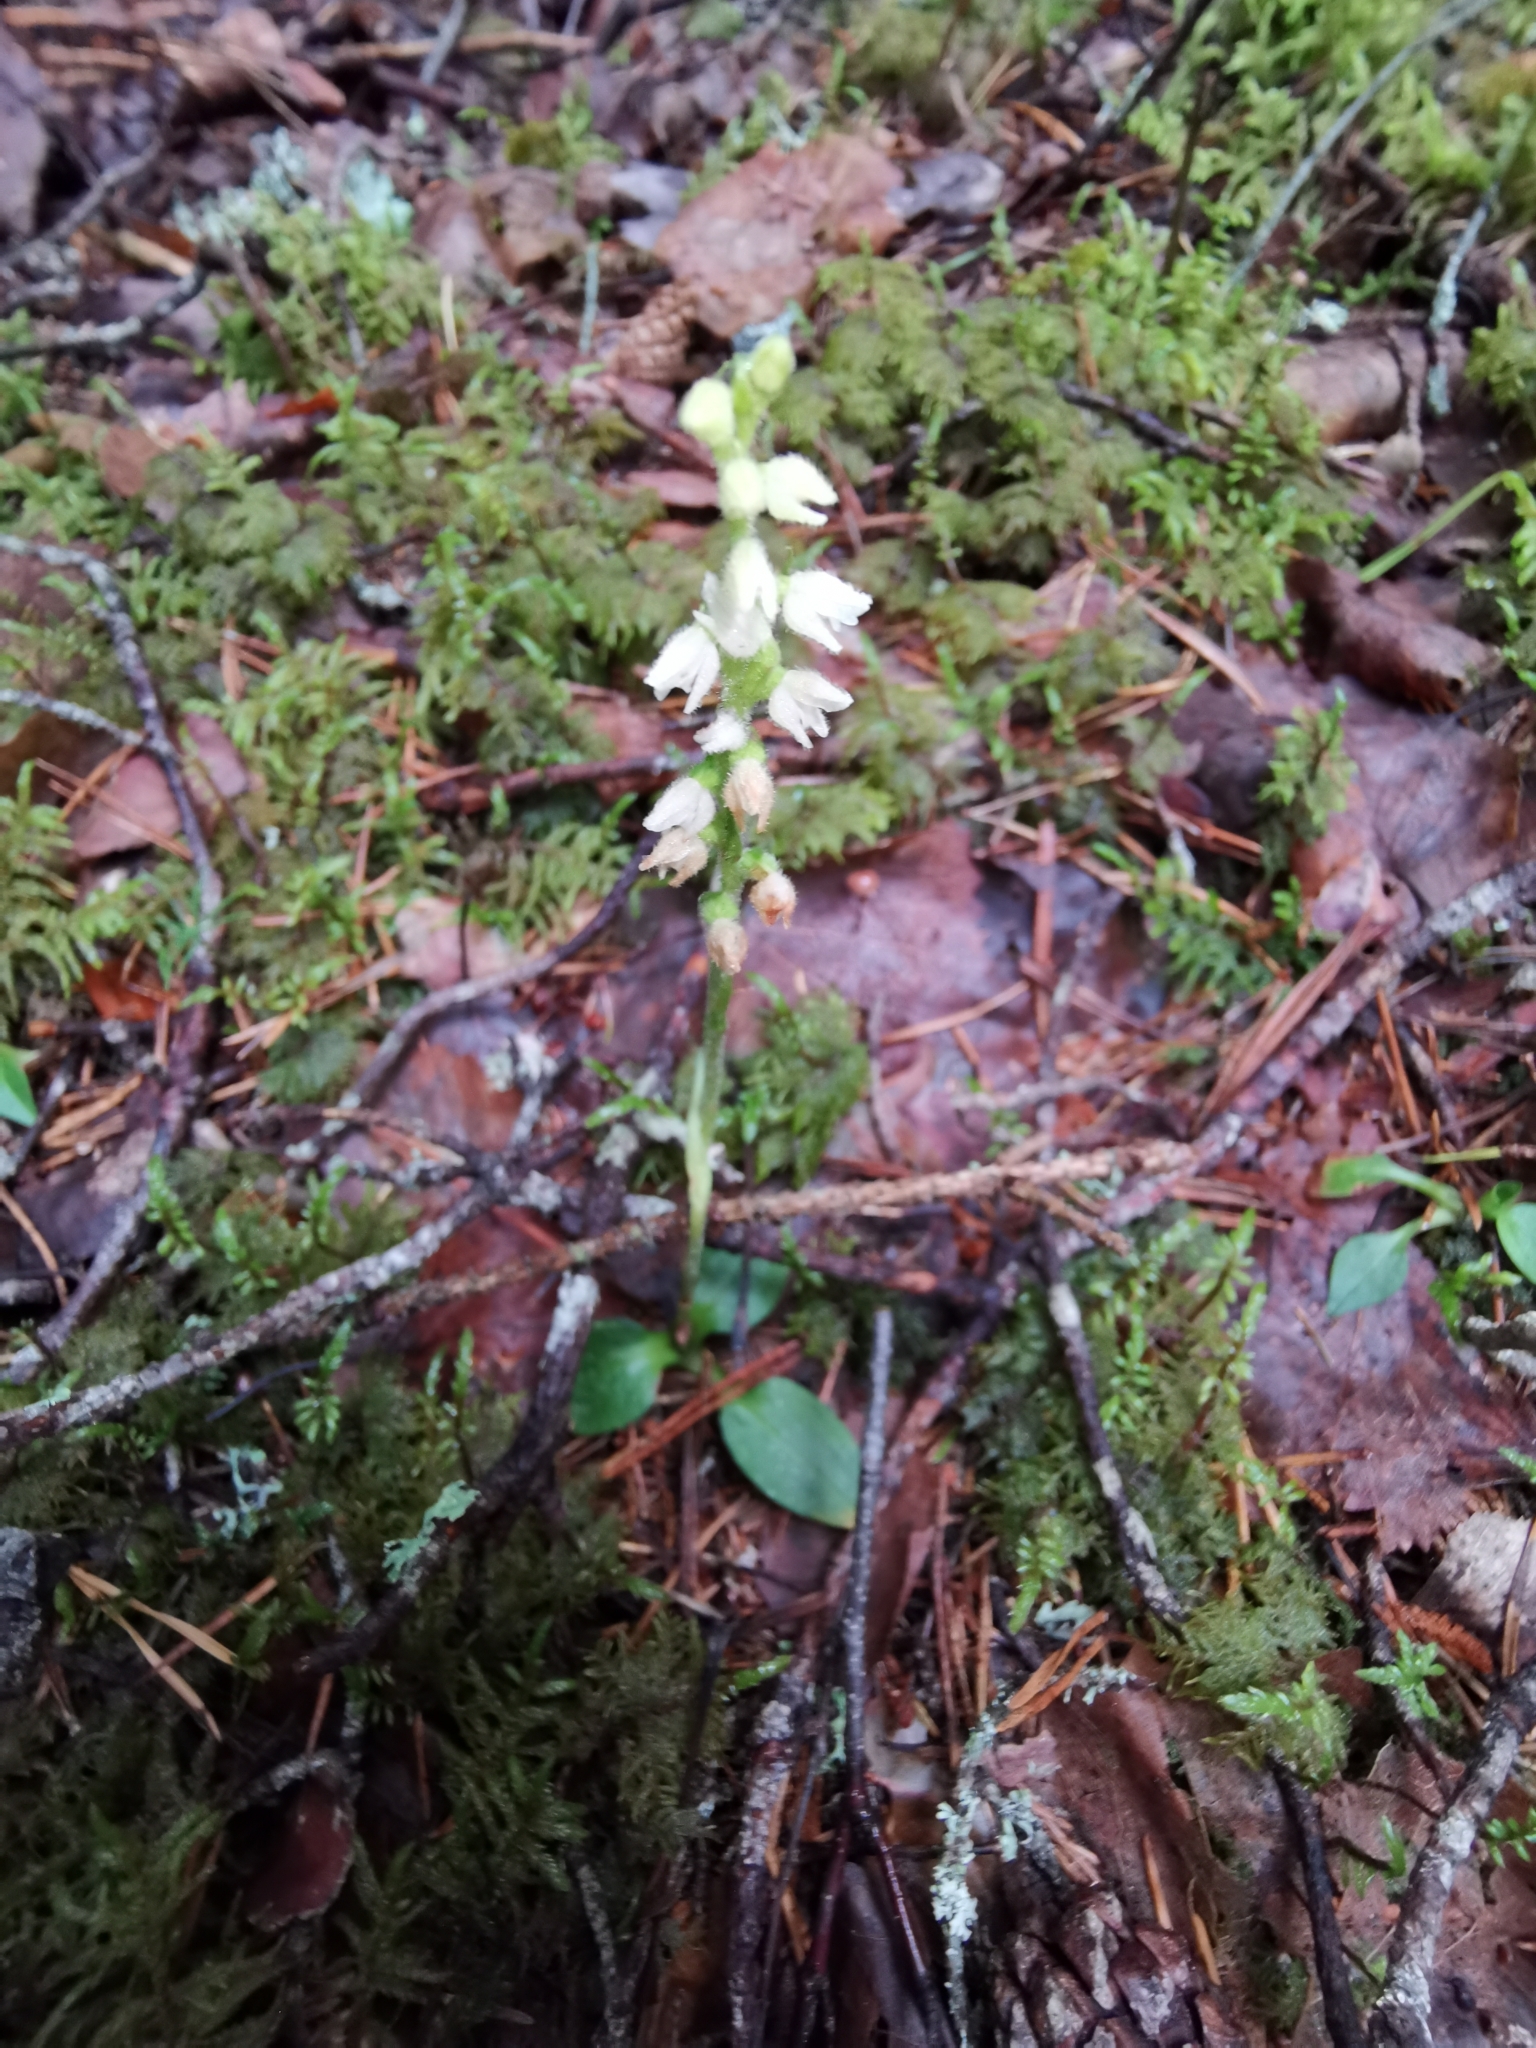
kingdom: Plantae
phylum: Tracheophyta
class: Liliopsida
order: Asparagales
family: Orchidaceae
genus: Goodyera
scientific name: Goodyera repens
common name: Creeping lady's-tresses
